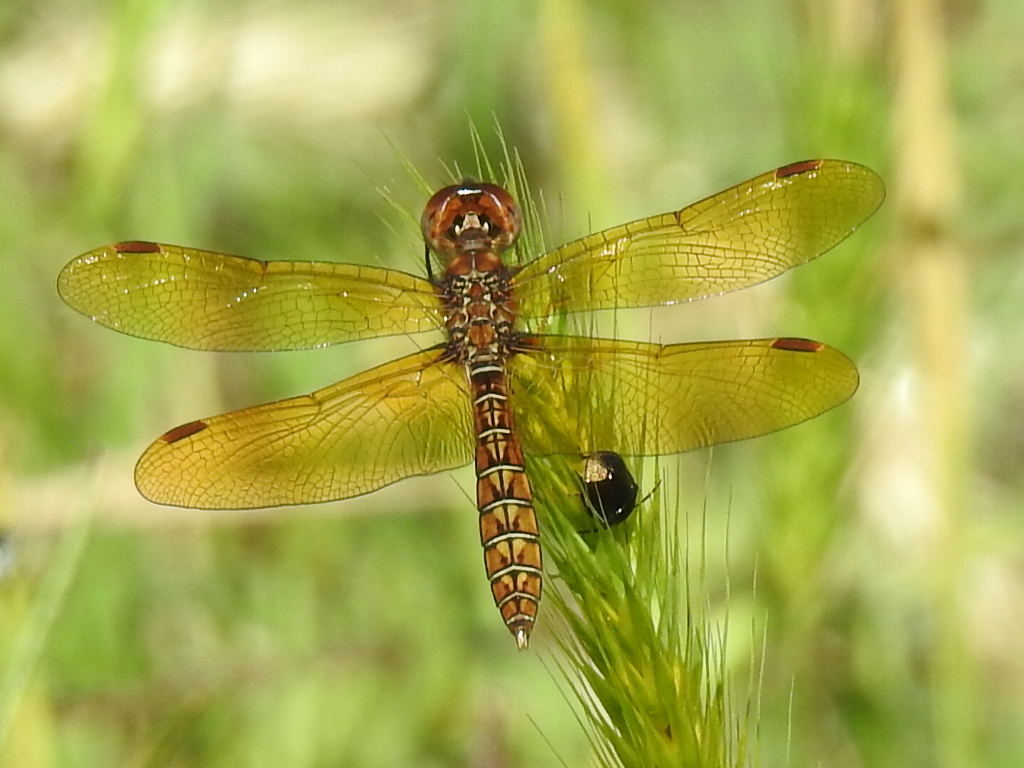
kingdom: Animalia
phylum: Arthropoda
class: Insecta
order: Odonata
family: Libellulidae
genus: Perithemis
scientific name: Perithemis tenera
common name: Eastern amberwing
